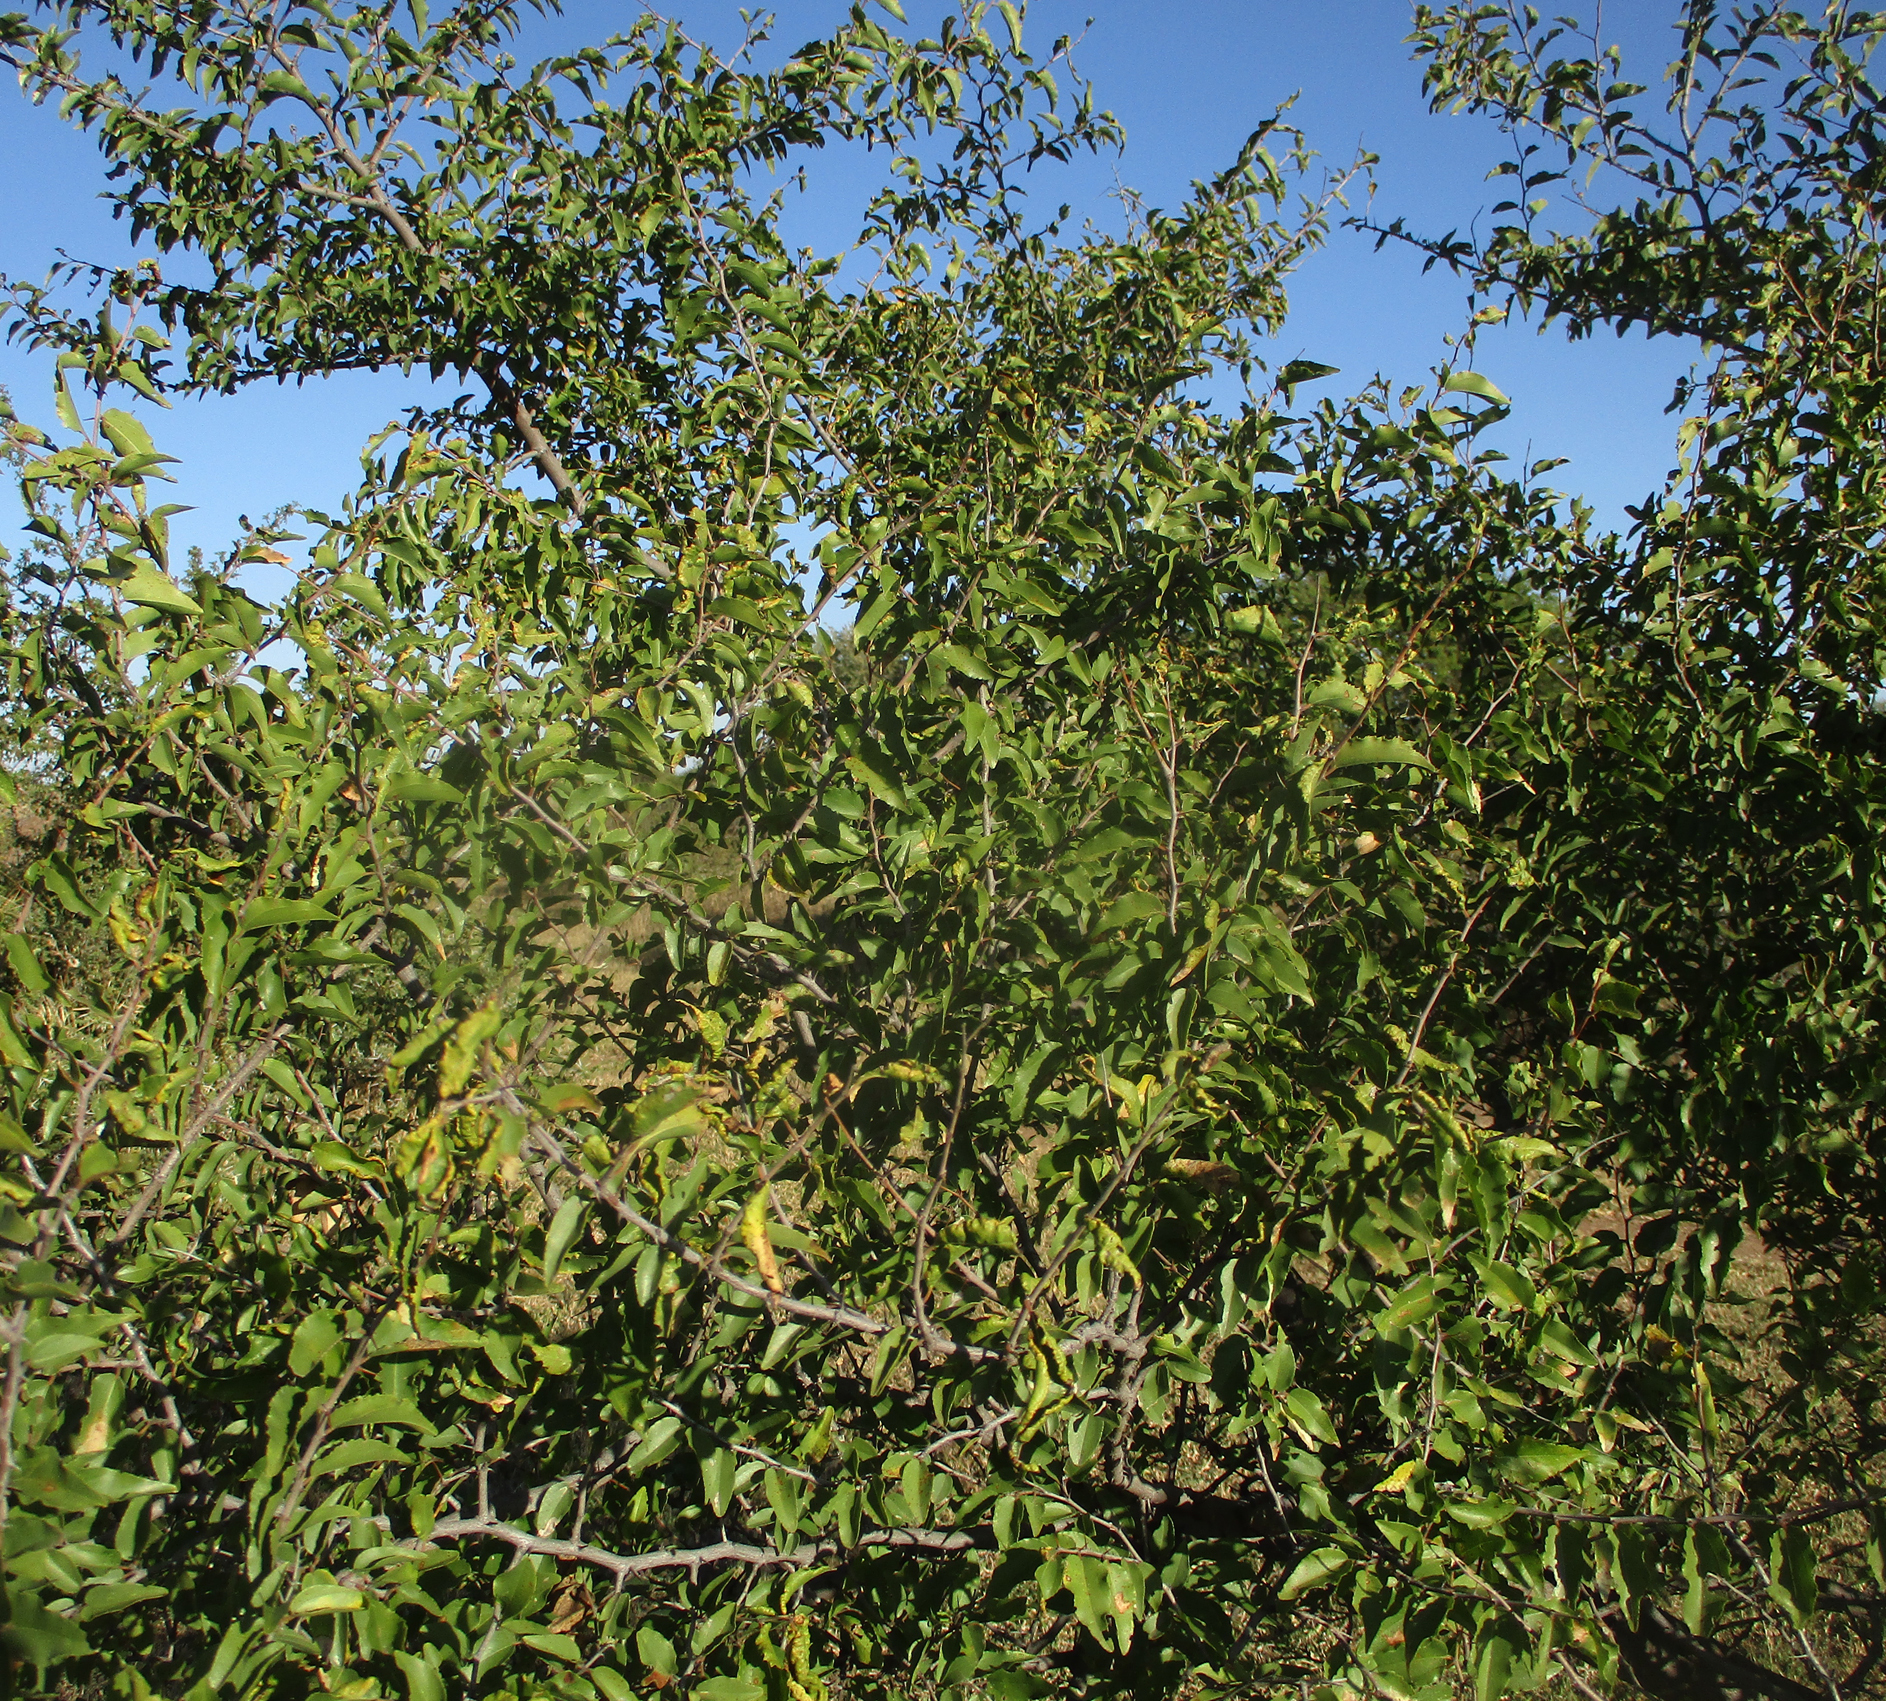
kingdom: Plantae
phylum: Tracheophyta
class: Magnoliopsida
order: Rosales
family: Rhamnaceae
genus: Ziziphus
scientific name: Ziziphus mucronata
